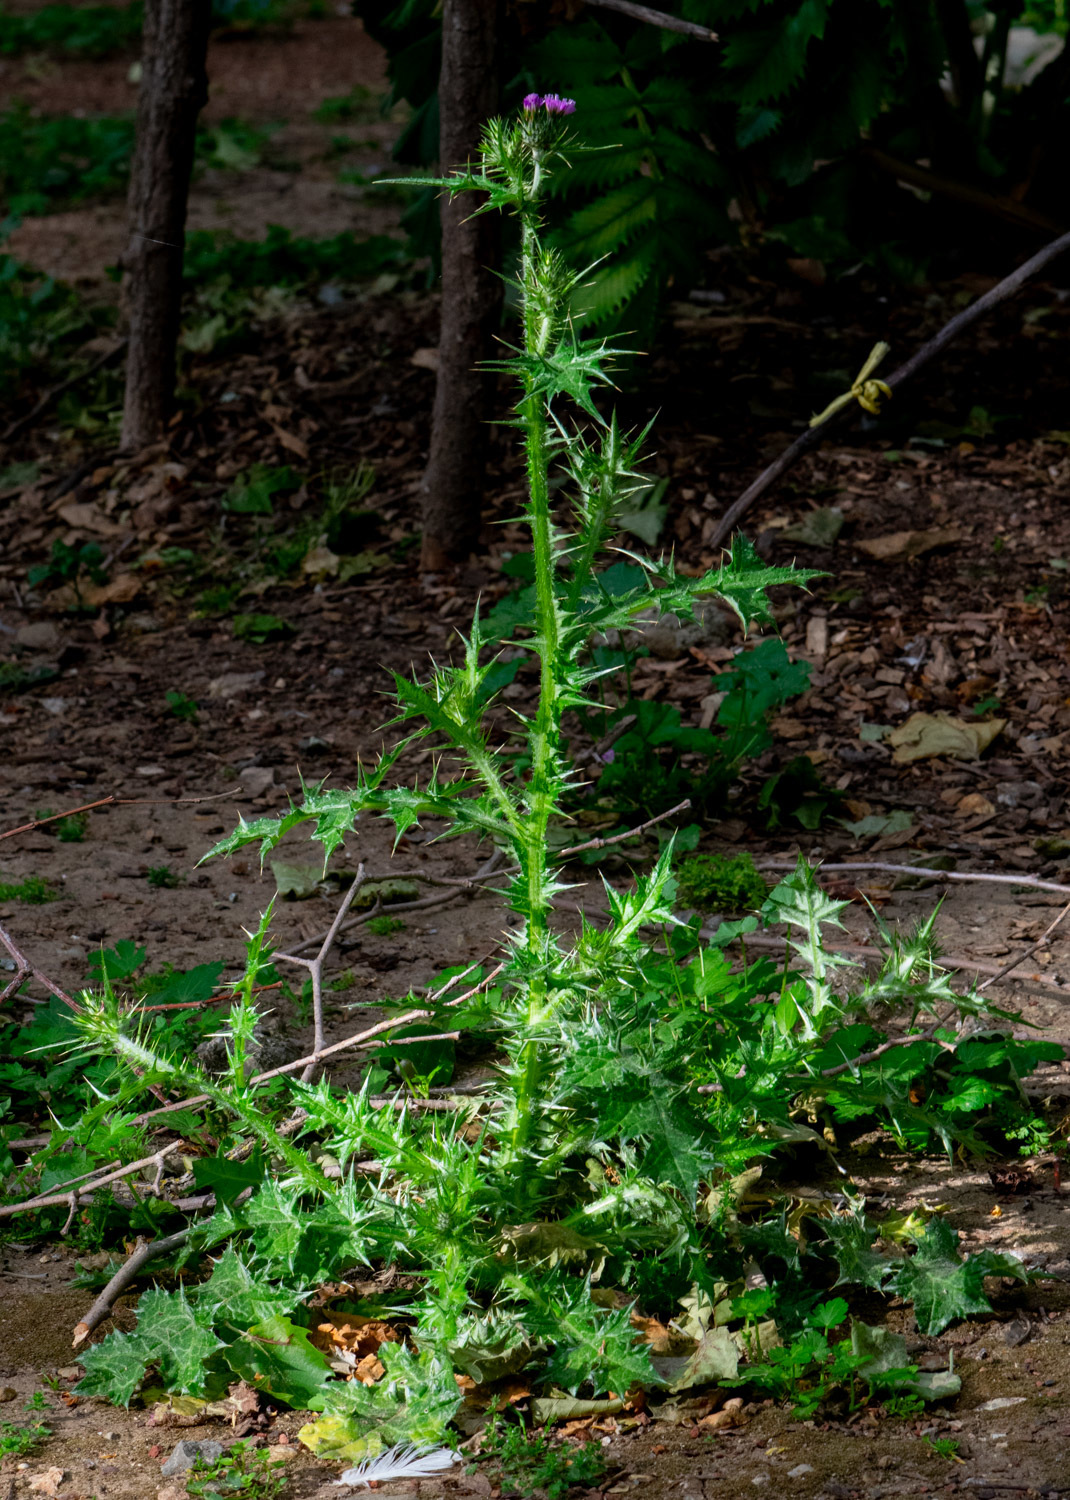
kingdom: Plantae
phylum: Tracheophyta
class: Magnoliopsida
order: Asterales
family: Asteraceae
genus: Carduus
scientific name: Carduus pycnocephalus
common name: Plymouth thistle
